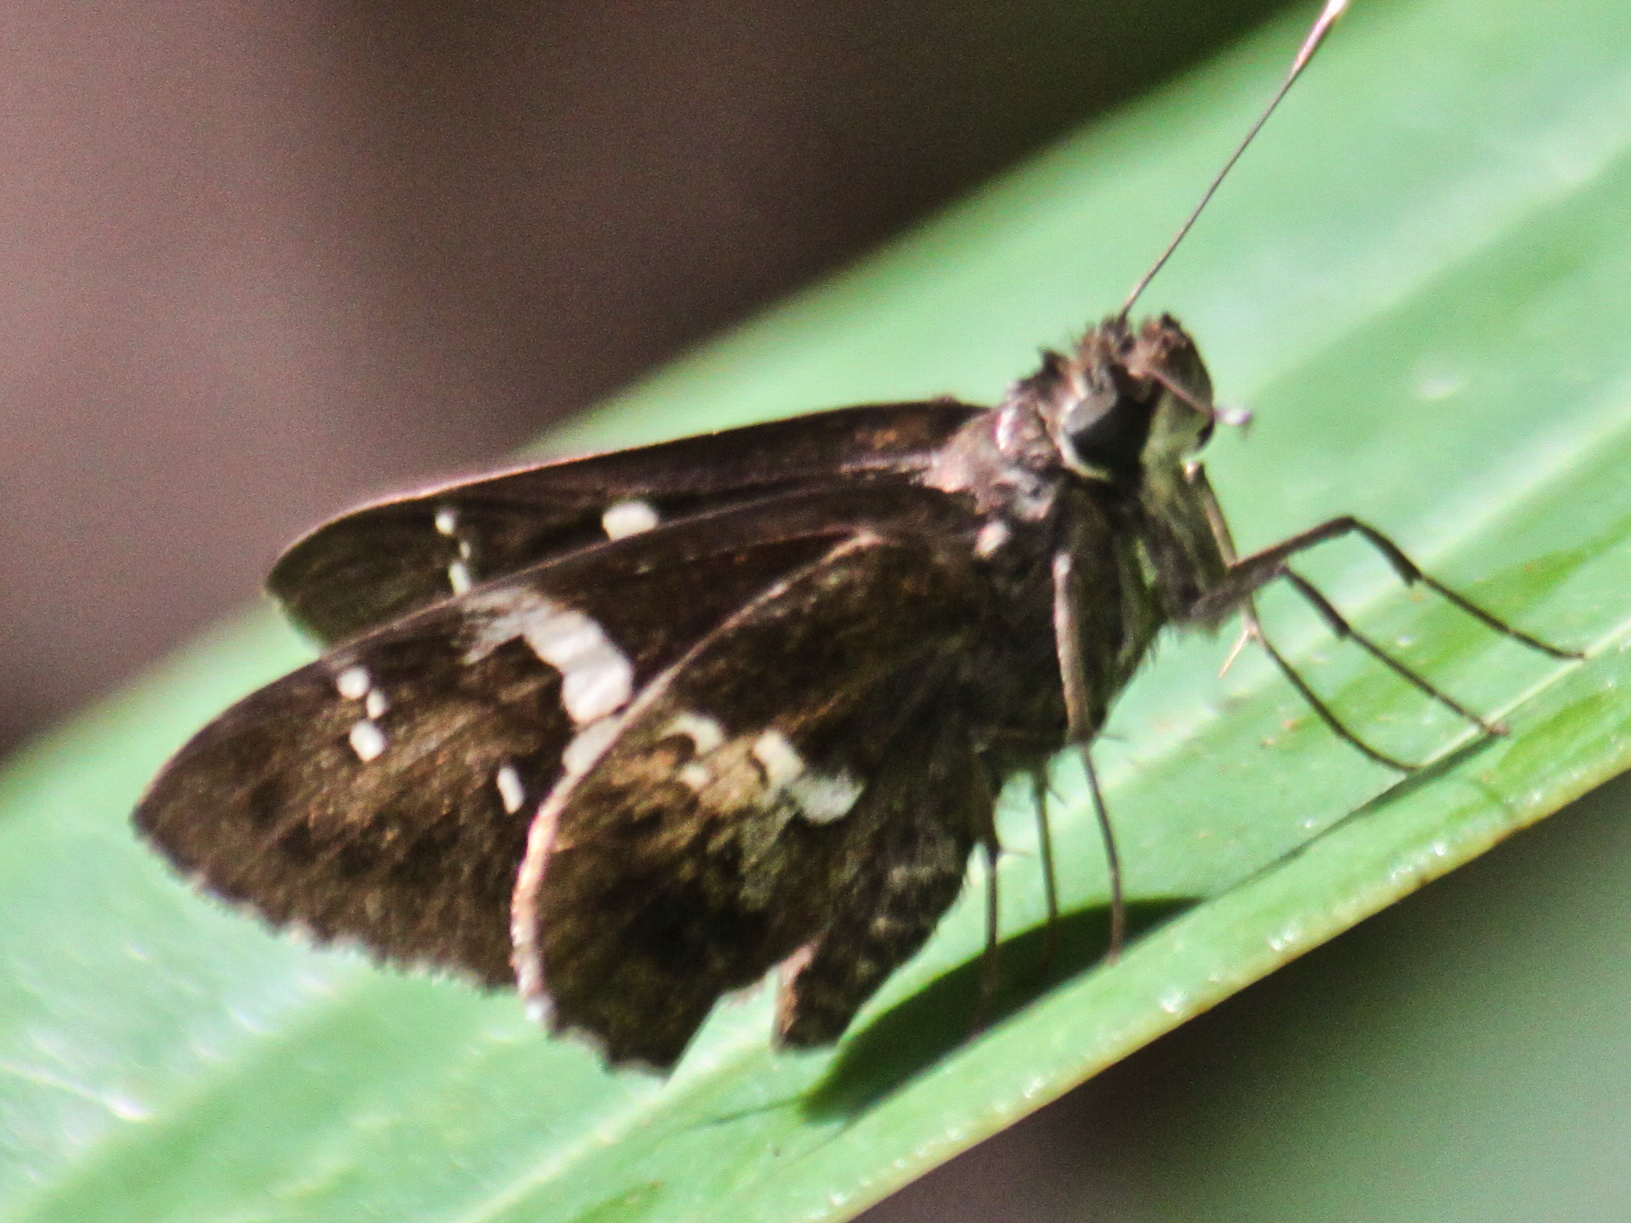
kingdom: Animalia
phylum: Arthropoda
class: Insecta
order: Lepidoptera
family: Hesperiidae
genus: Hyarotis
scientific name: Hyarotis adrastus
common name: Tree flitter
